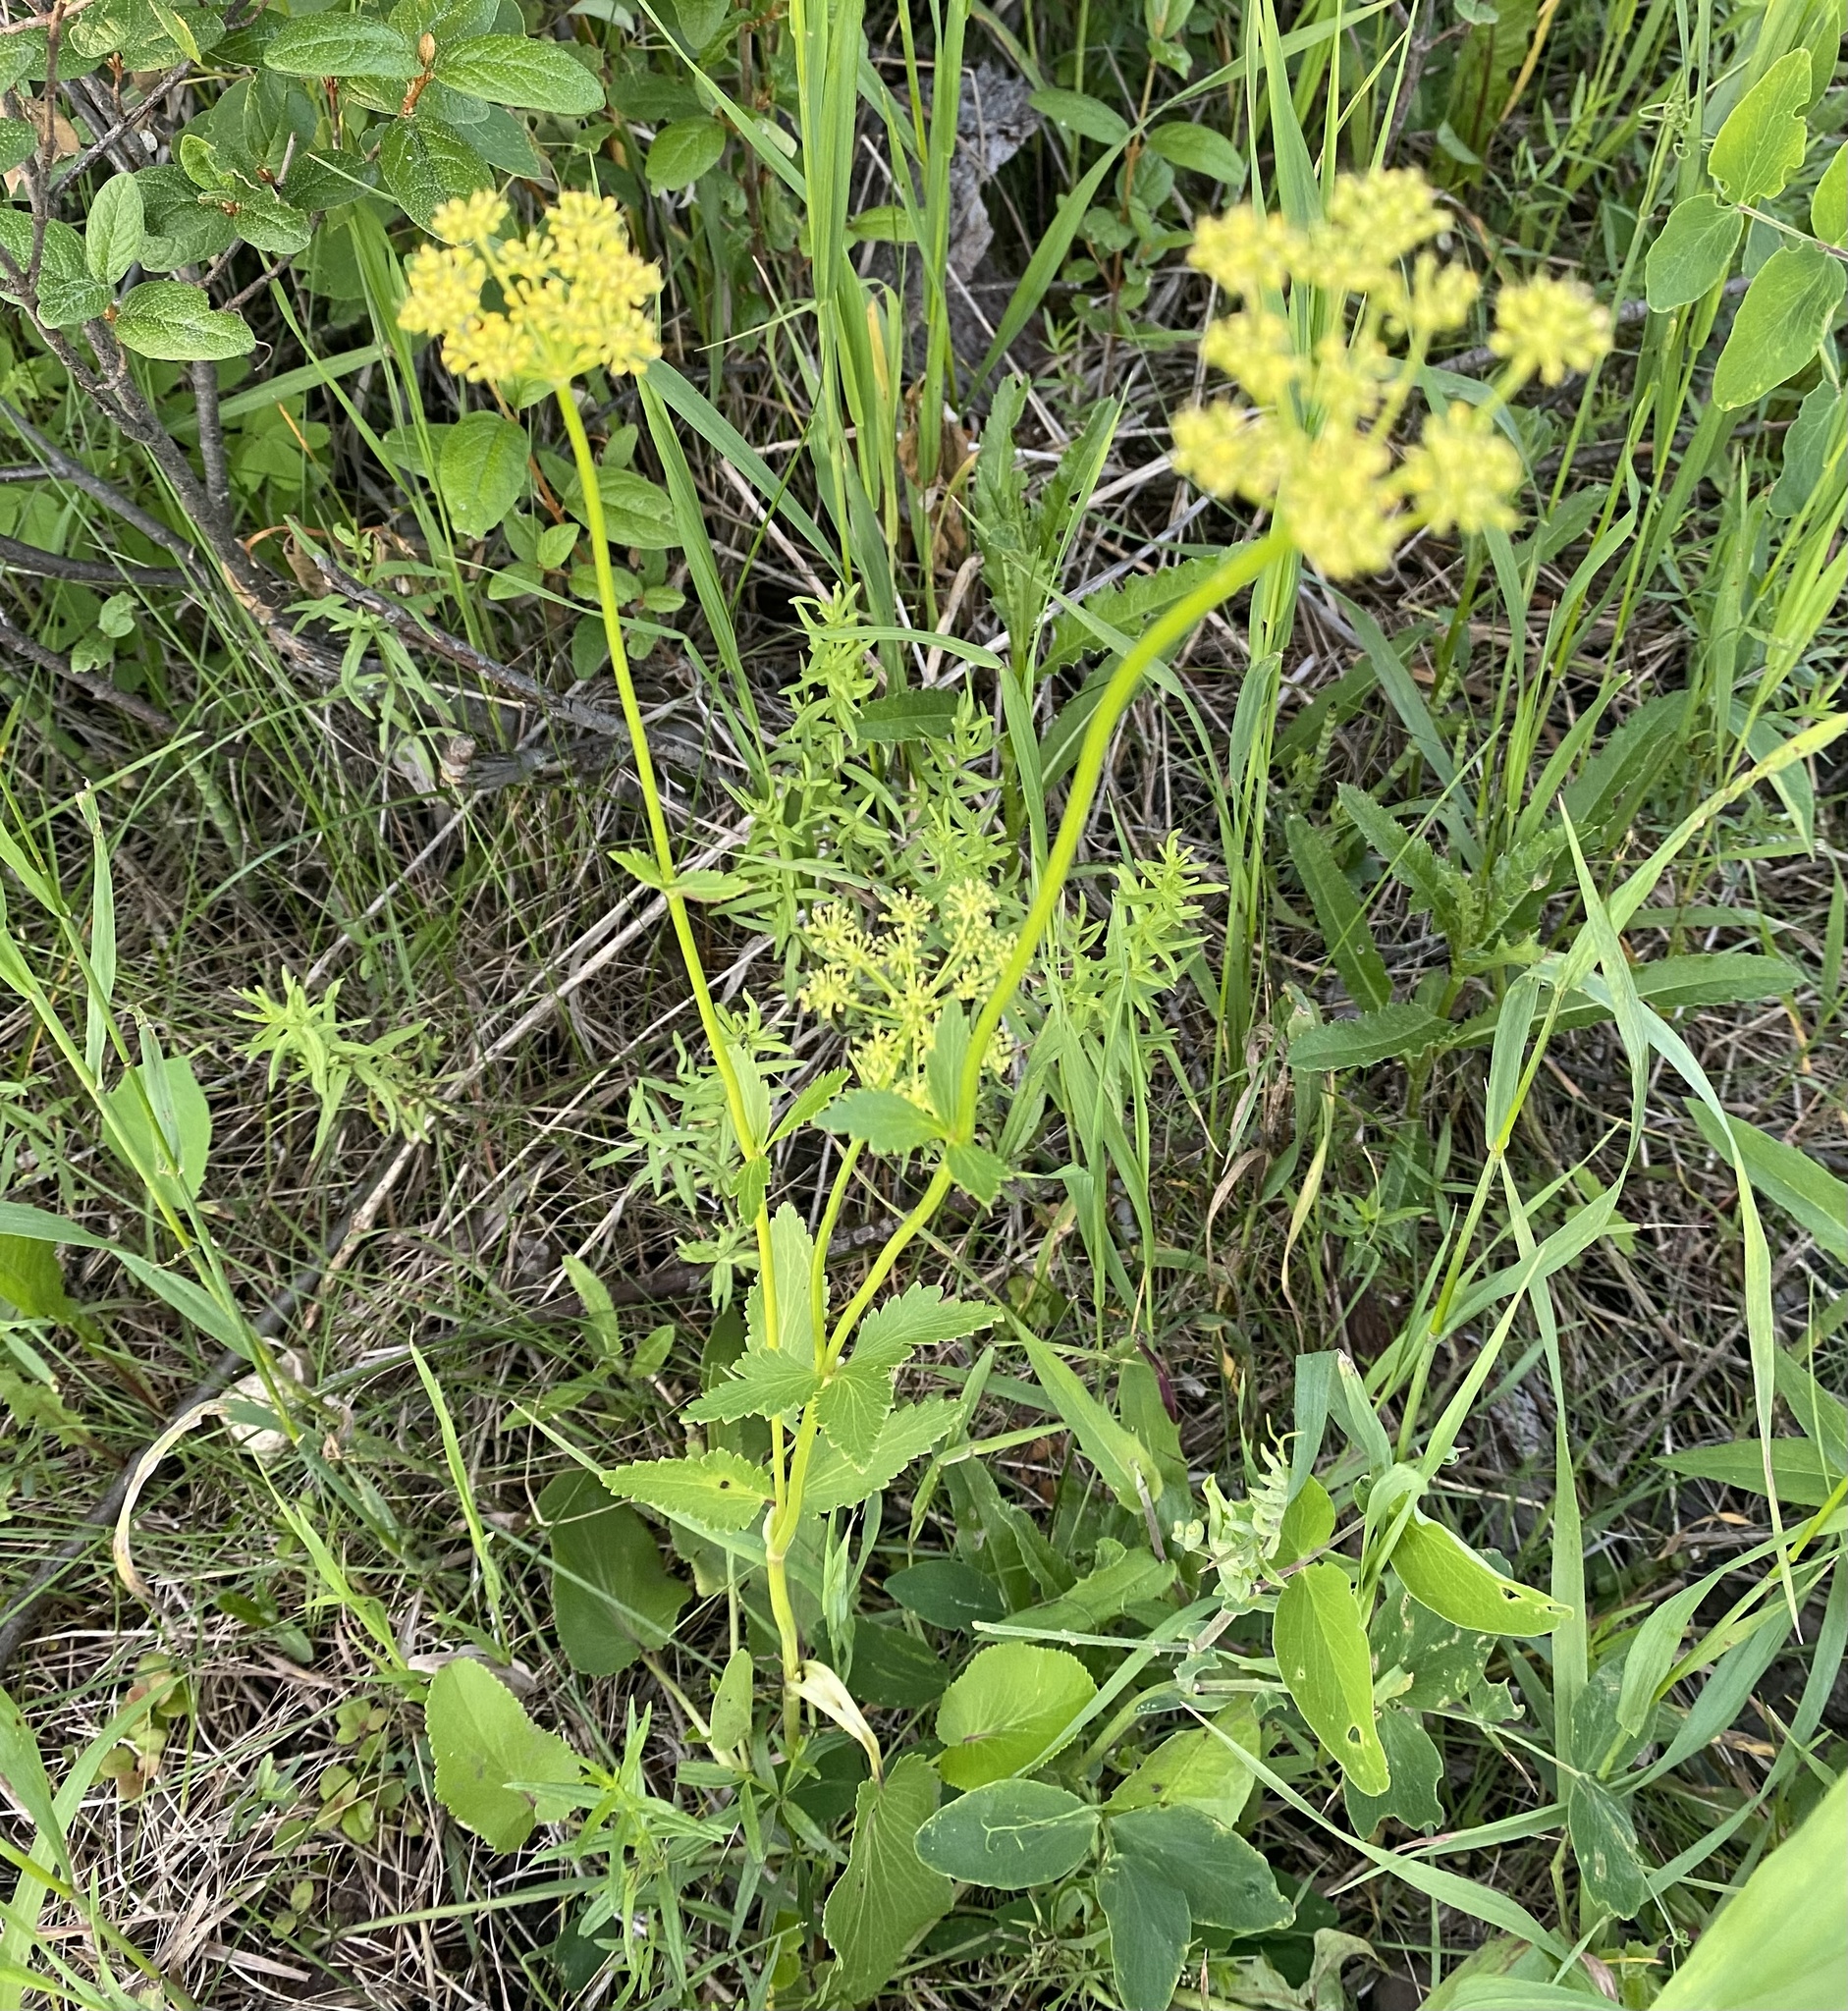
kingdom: Plantae
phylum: Tracheophyta
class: Magnoliopsida
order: Apiales
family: Apiaceae
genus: Zizia
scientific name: Zizia aptera
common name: Heart-leaved alexanders
